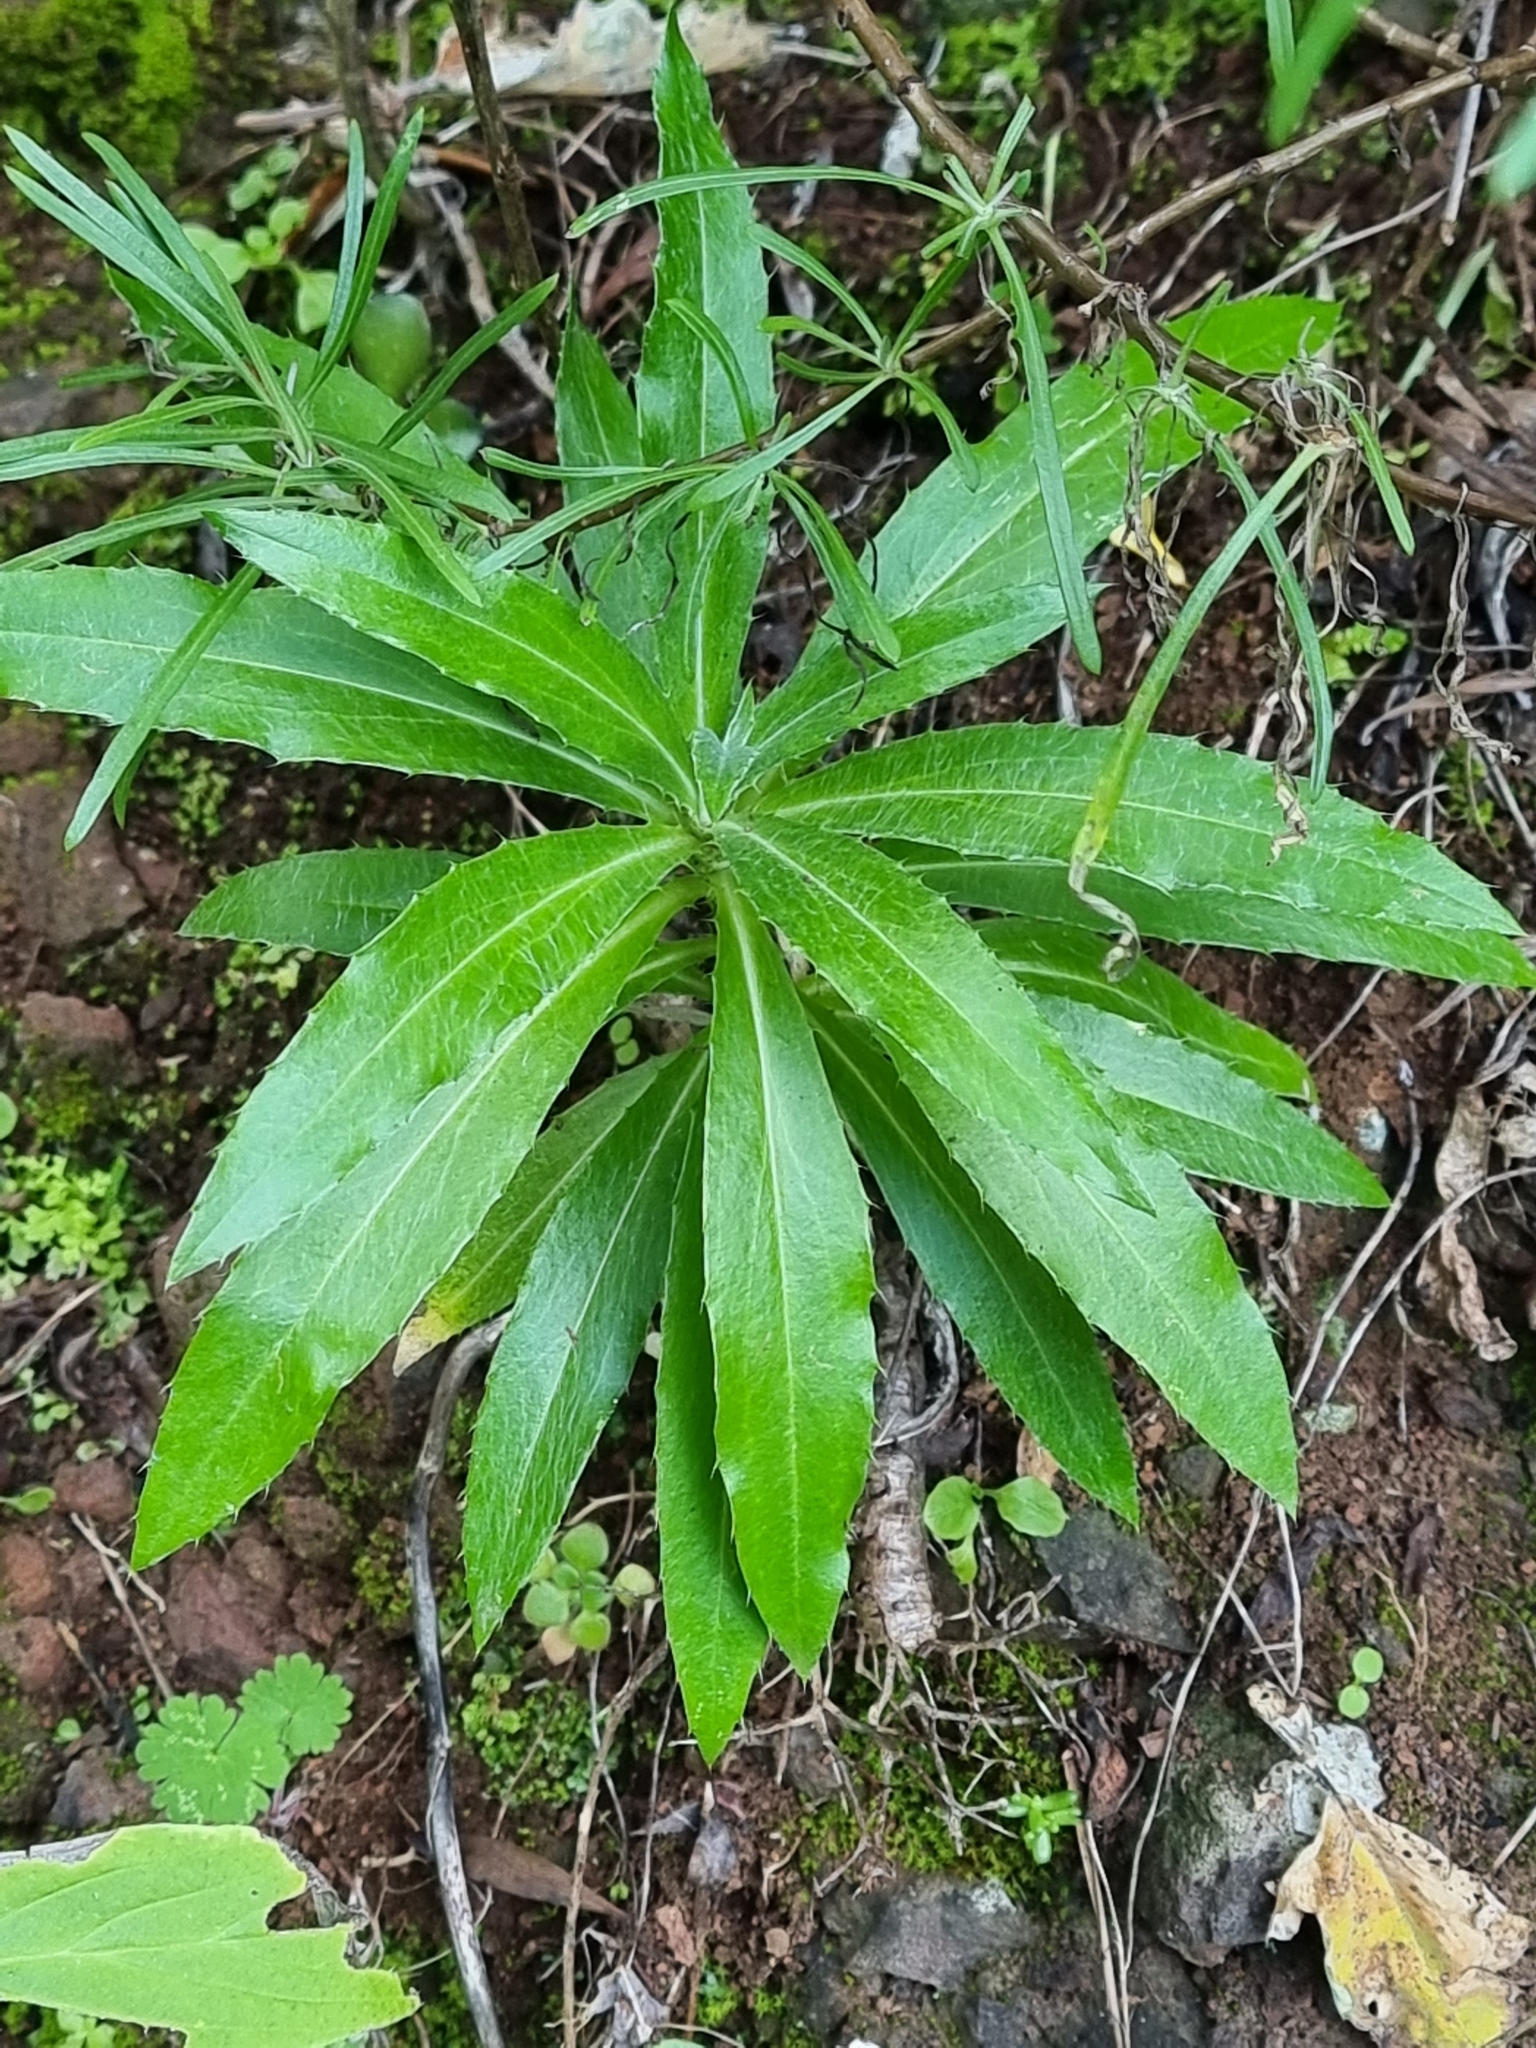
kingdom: Plantae
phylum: Tracheophyta
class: Magnoliopsida
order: Asterales
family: Asteraceae
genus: Carlina
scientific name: Carlina salicifolia
